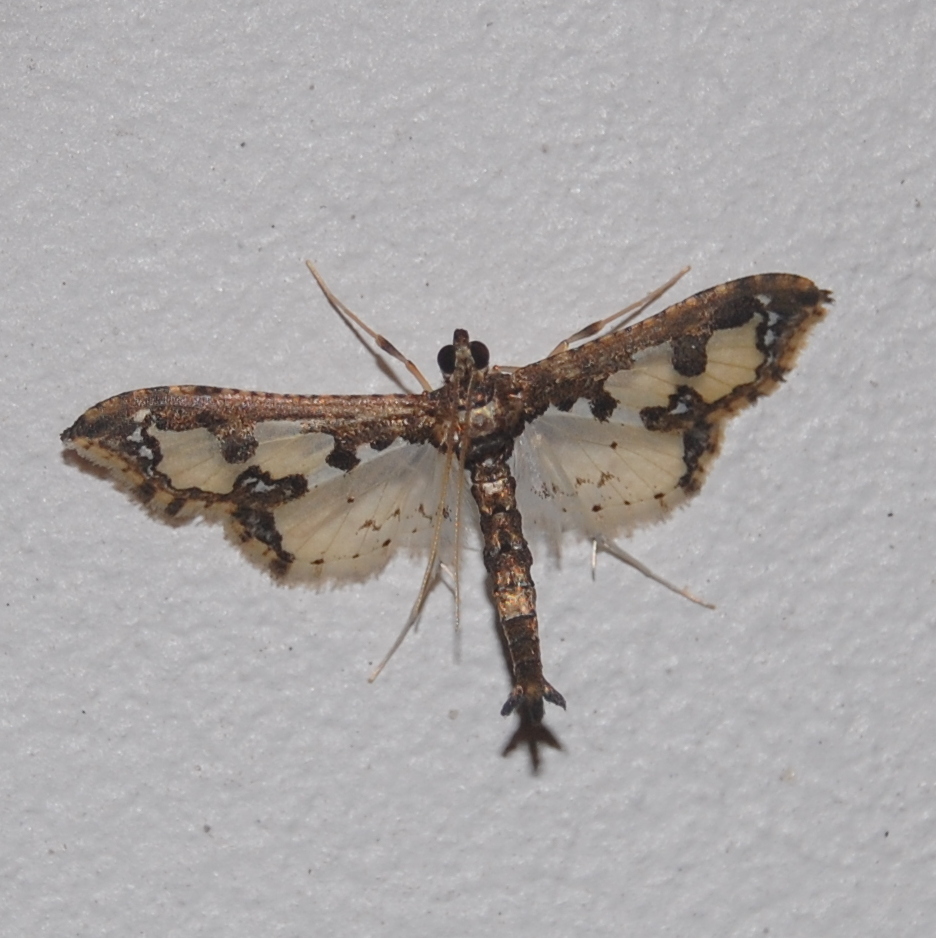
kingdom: Animalia
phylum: Arthropoda
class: Insecta
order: Lepidoptera
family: Crambidae
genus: Gonocausta
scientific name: Gonocausta
